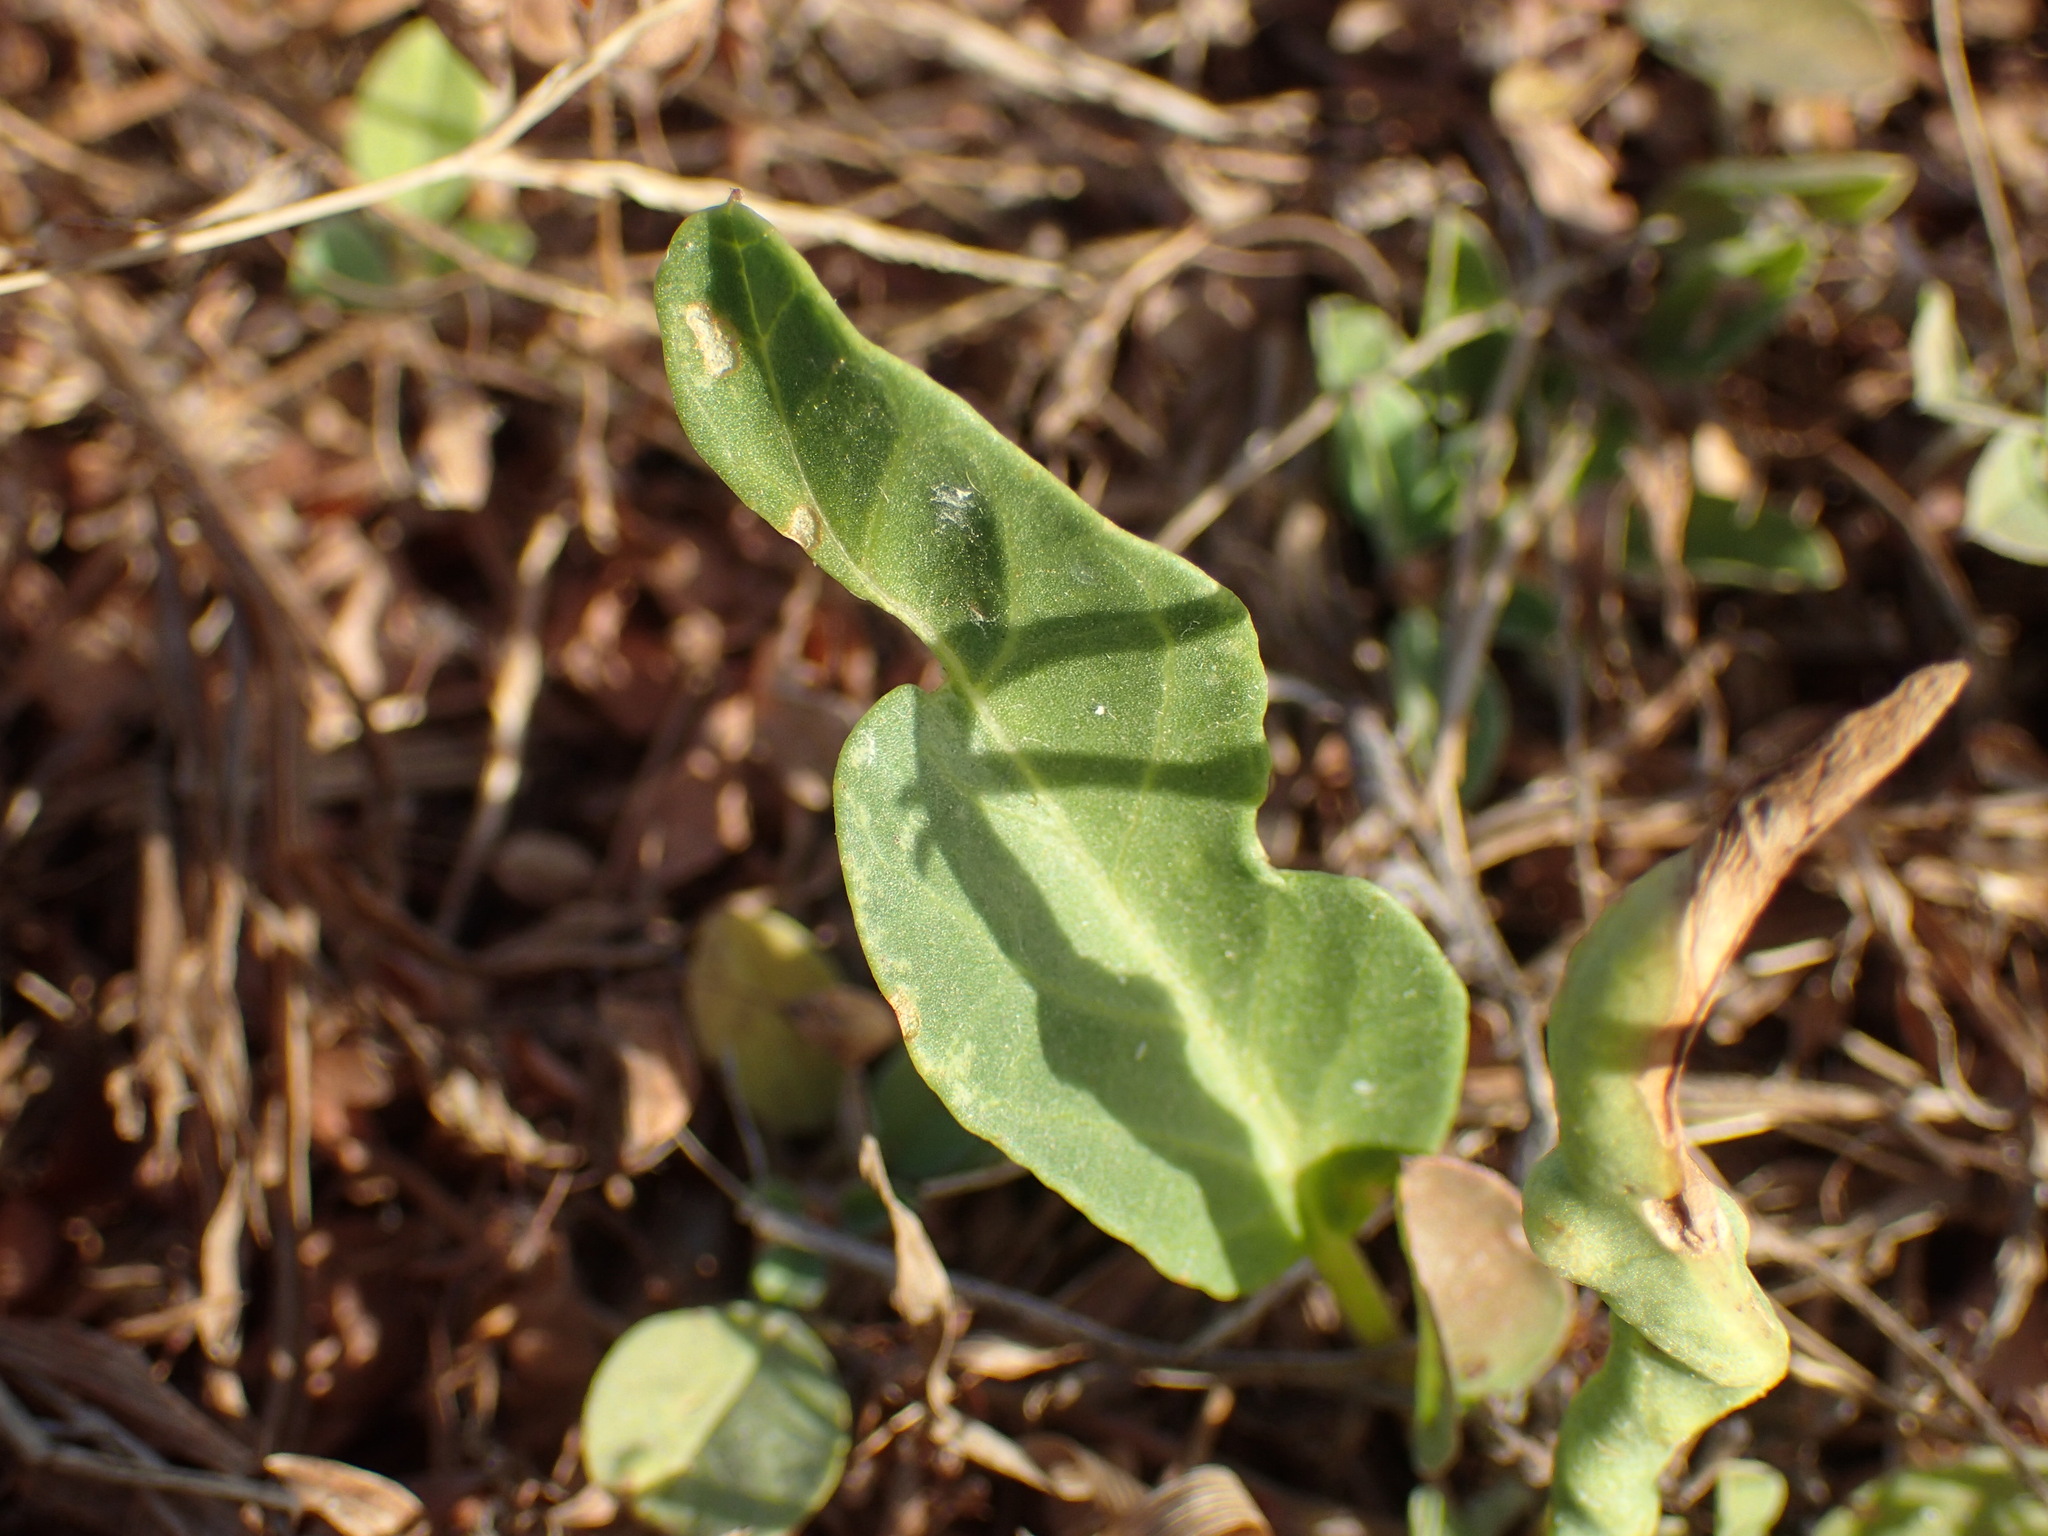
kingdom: Plantae
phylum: Tracheophyta
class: Magnoliopsida
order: Solanales
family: Convolvulaceae
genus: Ipomoea
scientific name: Ipomoea imperati
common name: Fiddle-leaf morning-glory
